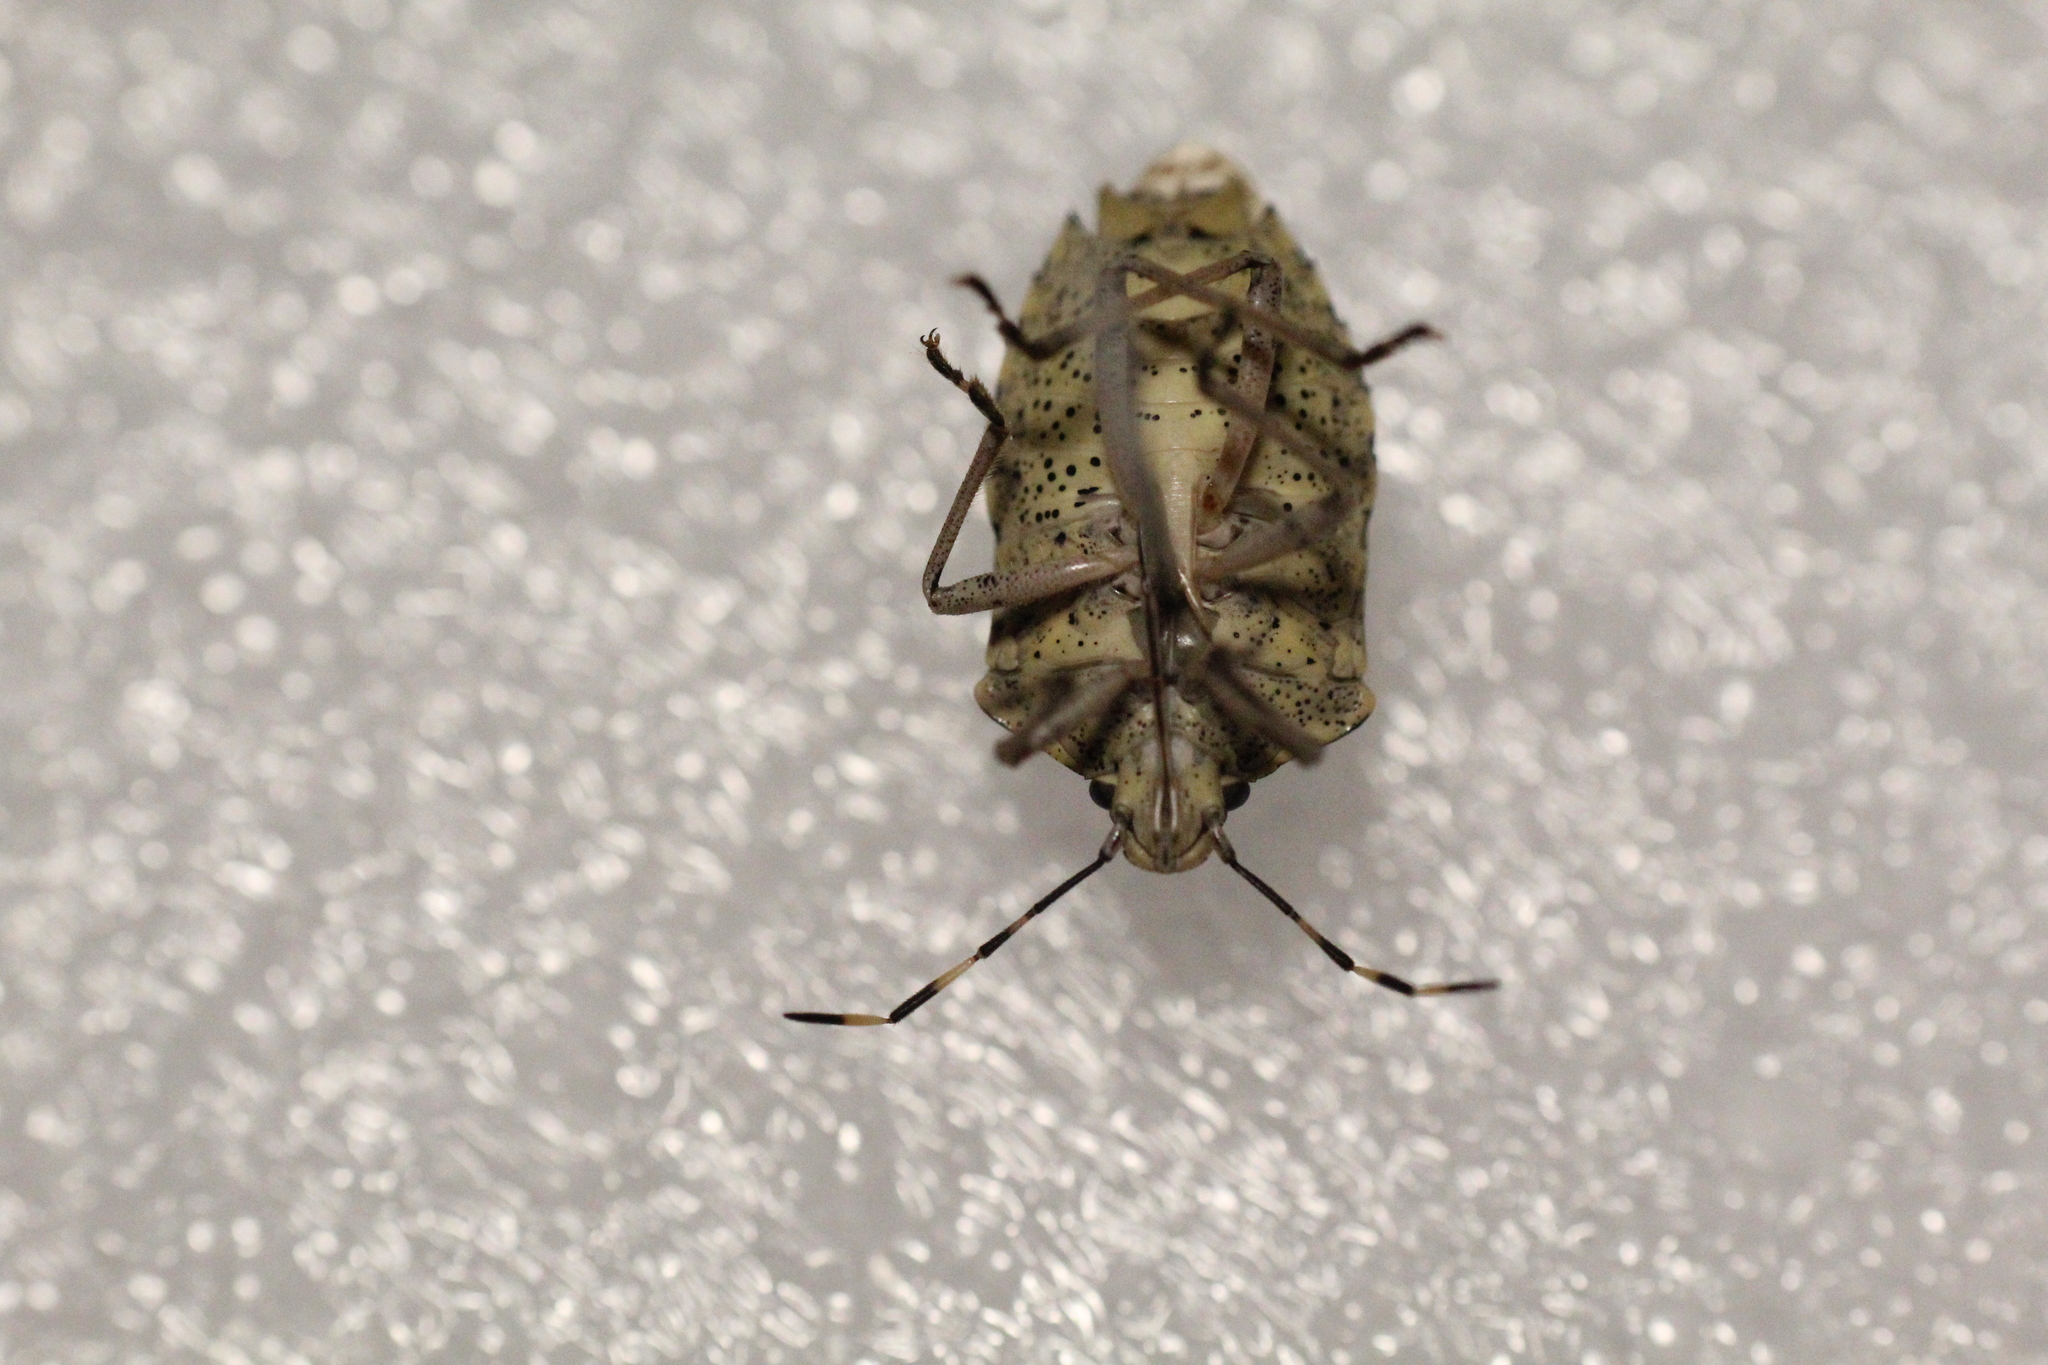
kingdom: Animalia
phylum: Arthropoda
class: Insecta
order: Hemiptera
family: Pentatomidae
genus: Rhaphigaster
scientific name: Rhaphigaster nebulosa
